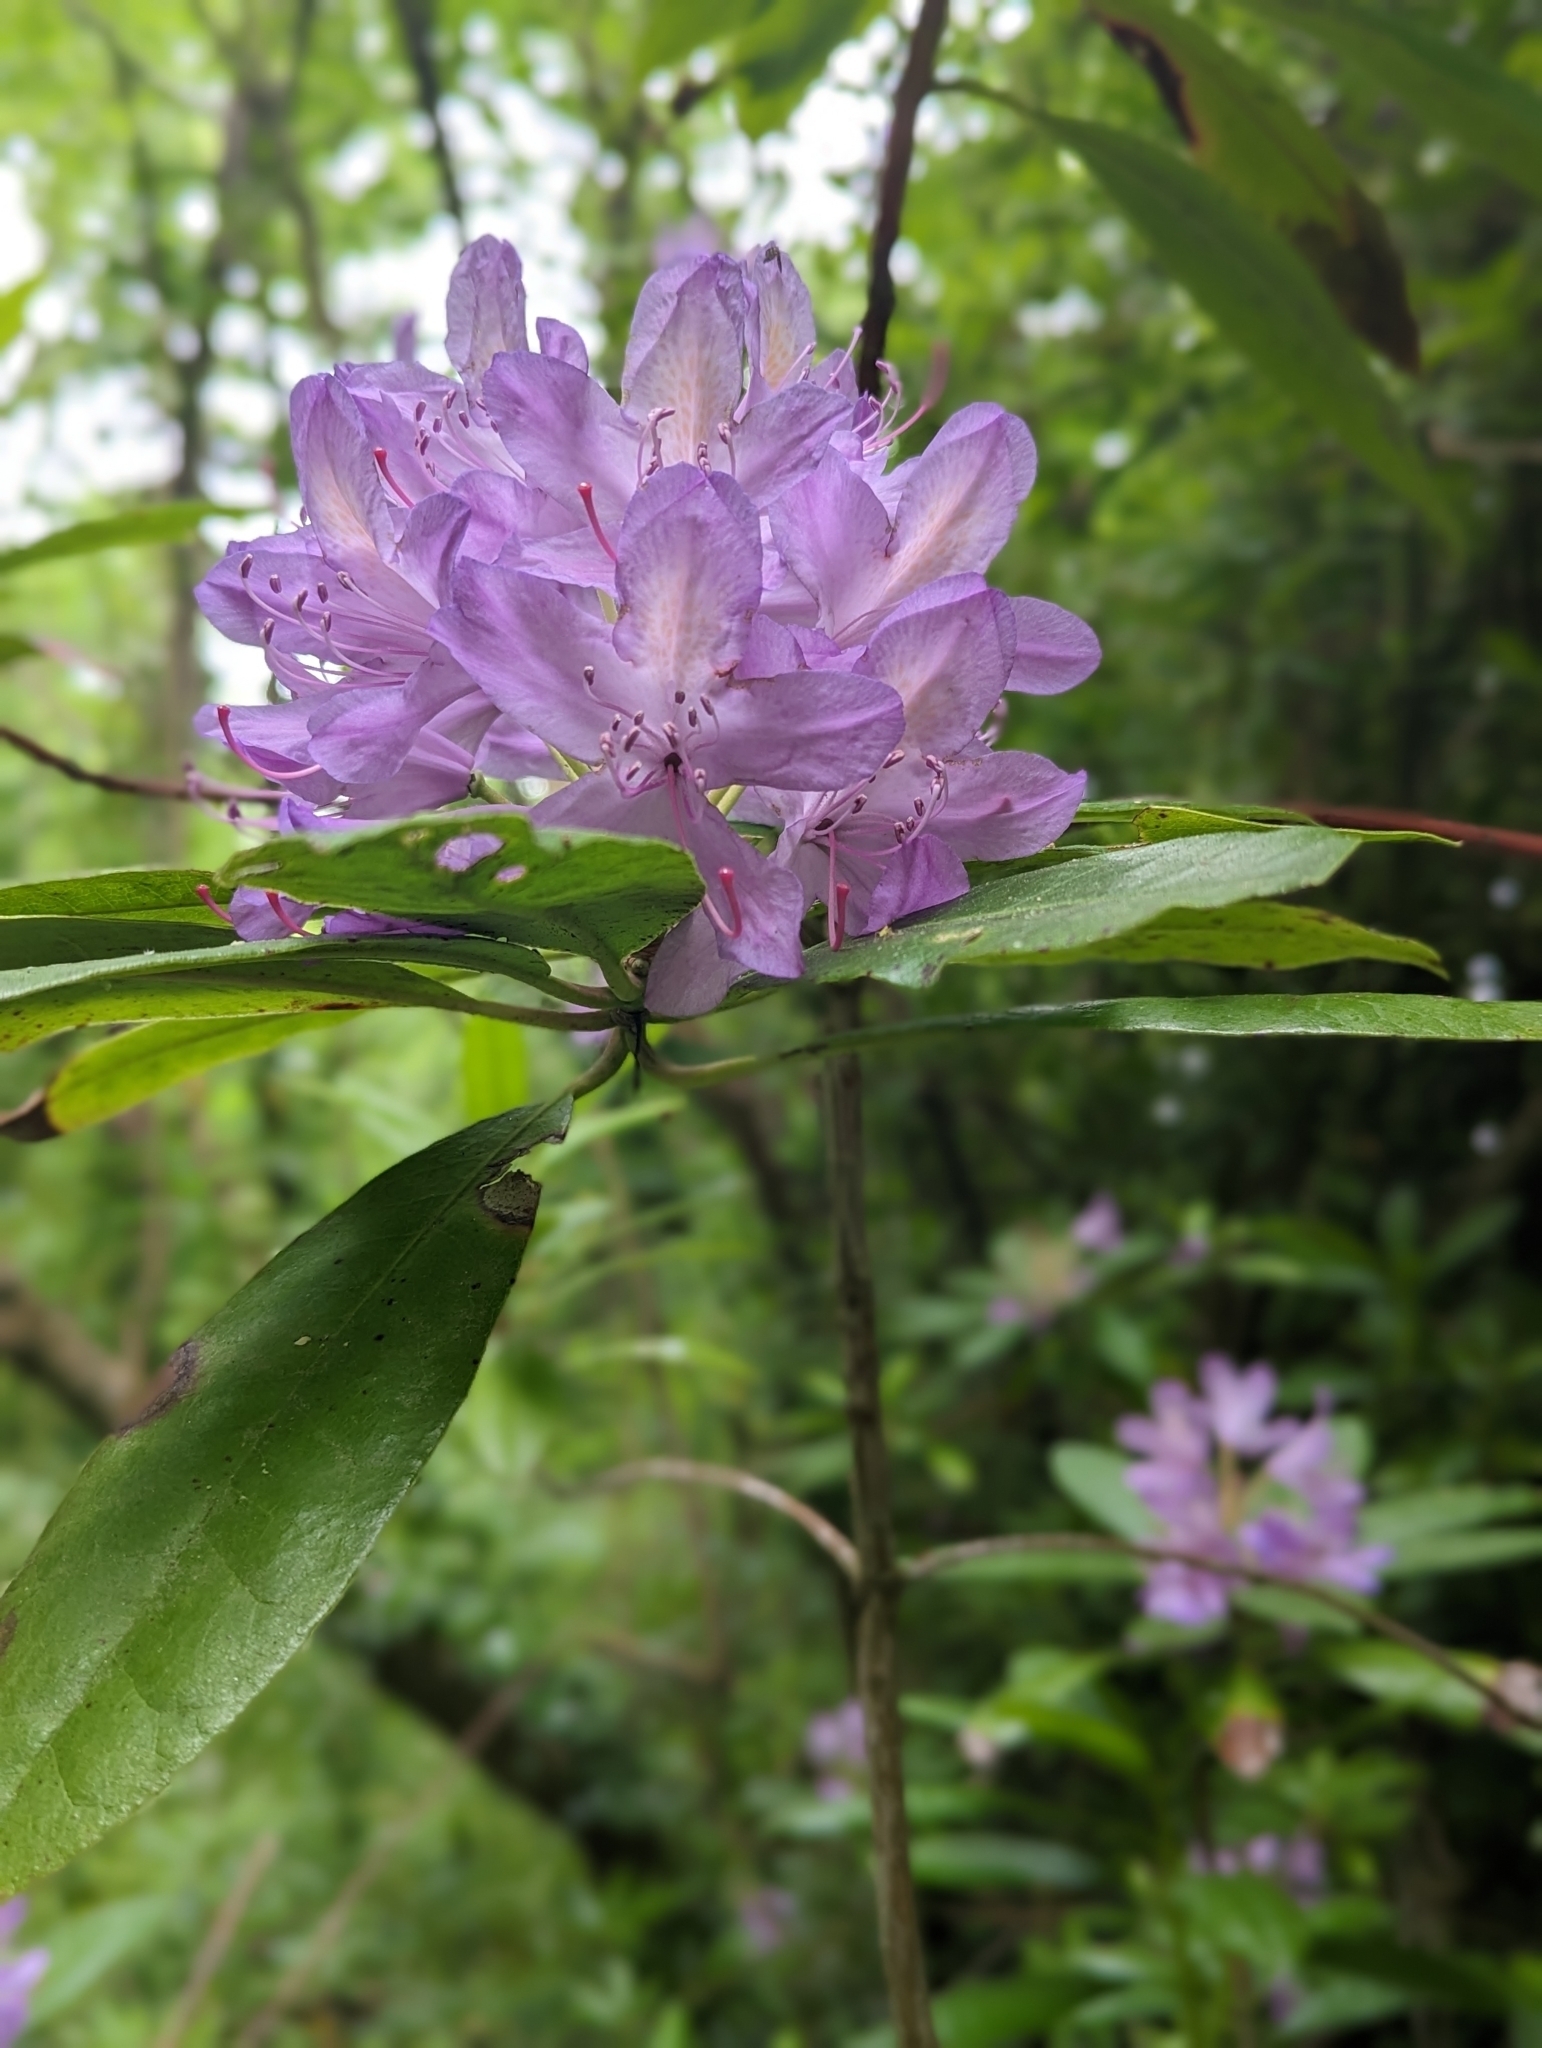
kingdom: Plantae
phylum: Tracheophyta
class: Magnoliopsida
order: Ericales
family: Ericaceae
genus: Rhododendron
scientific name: Rhododendron ponticum
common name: Rhododendron
